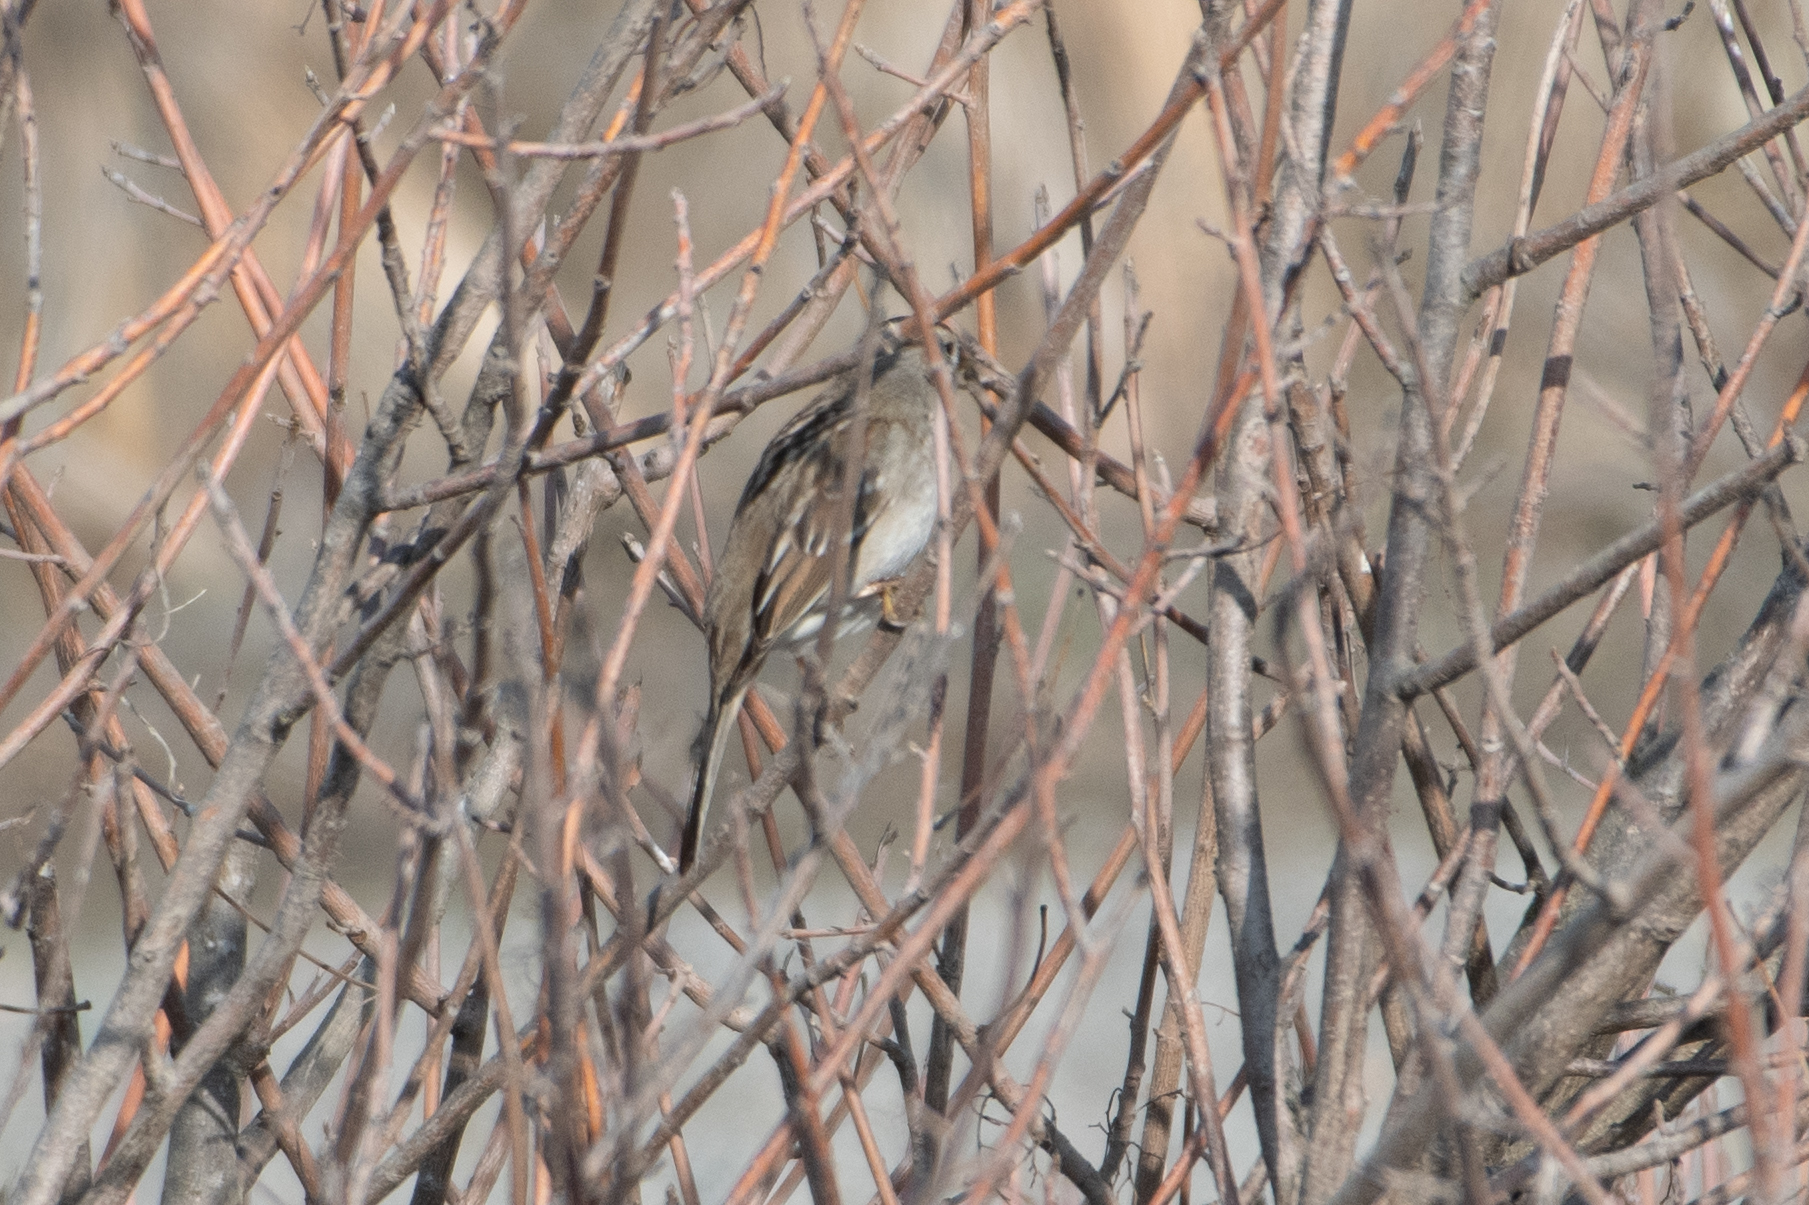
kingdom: Animalia
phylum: Chordata
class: Aves
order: Passeriformes
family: Passerellidae
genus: Zonotrichia
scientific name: Zonotrichia leucophrys
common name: White-crowned sparrow
